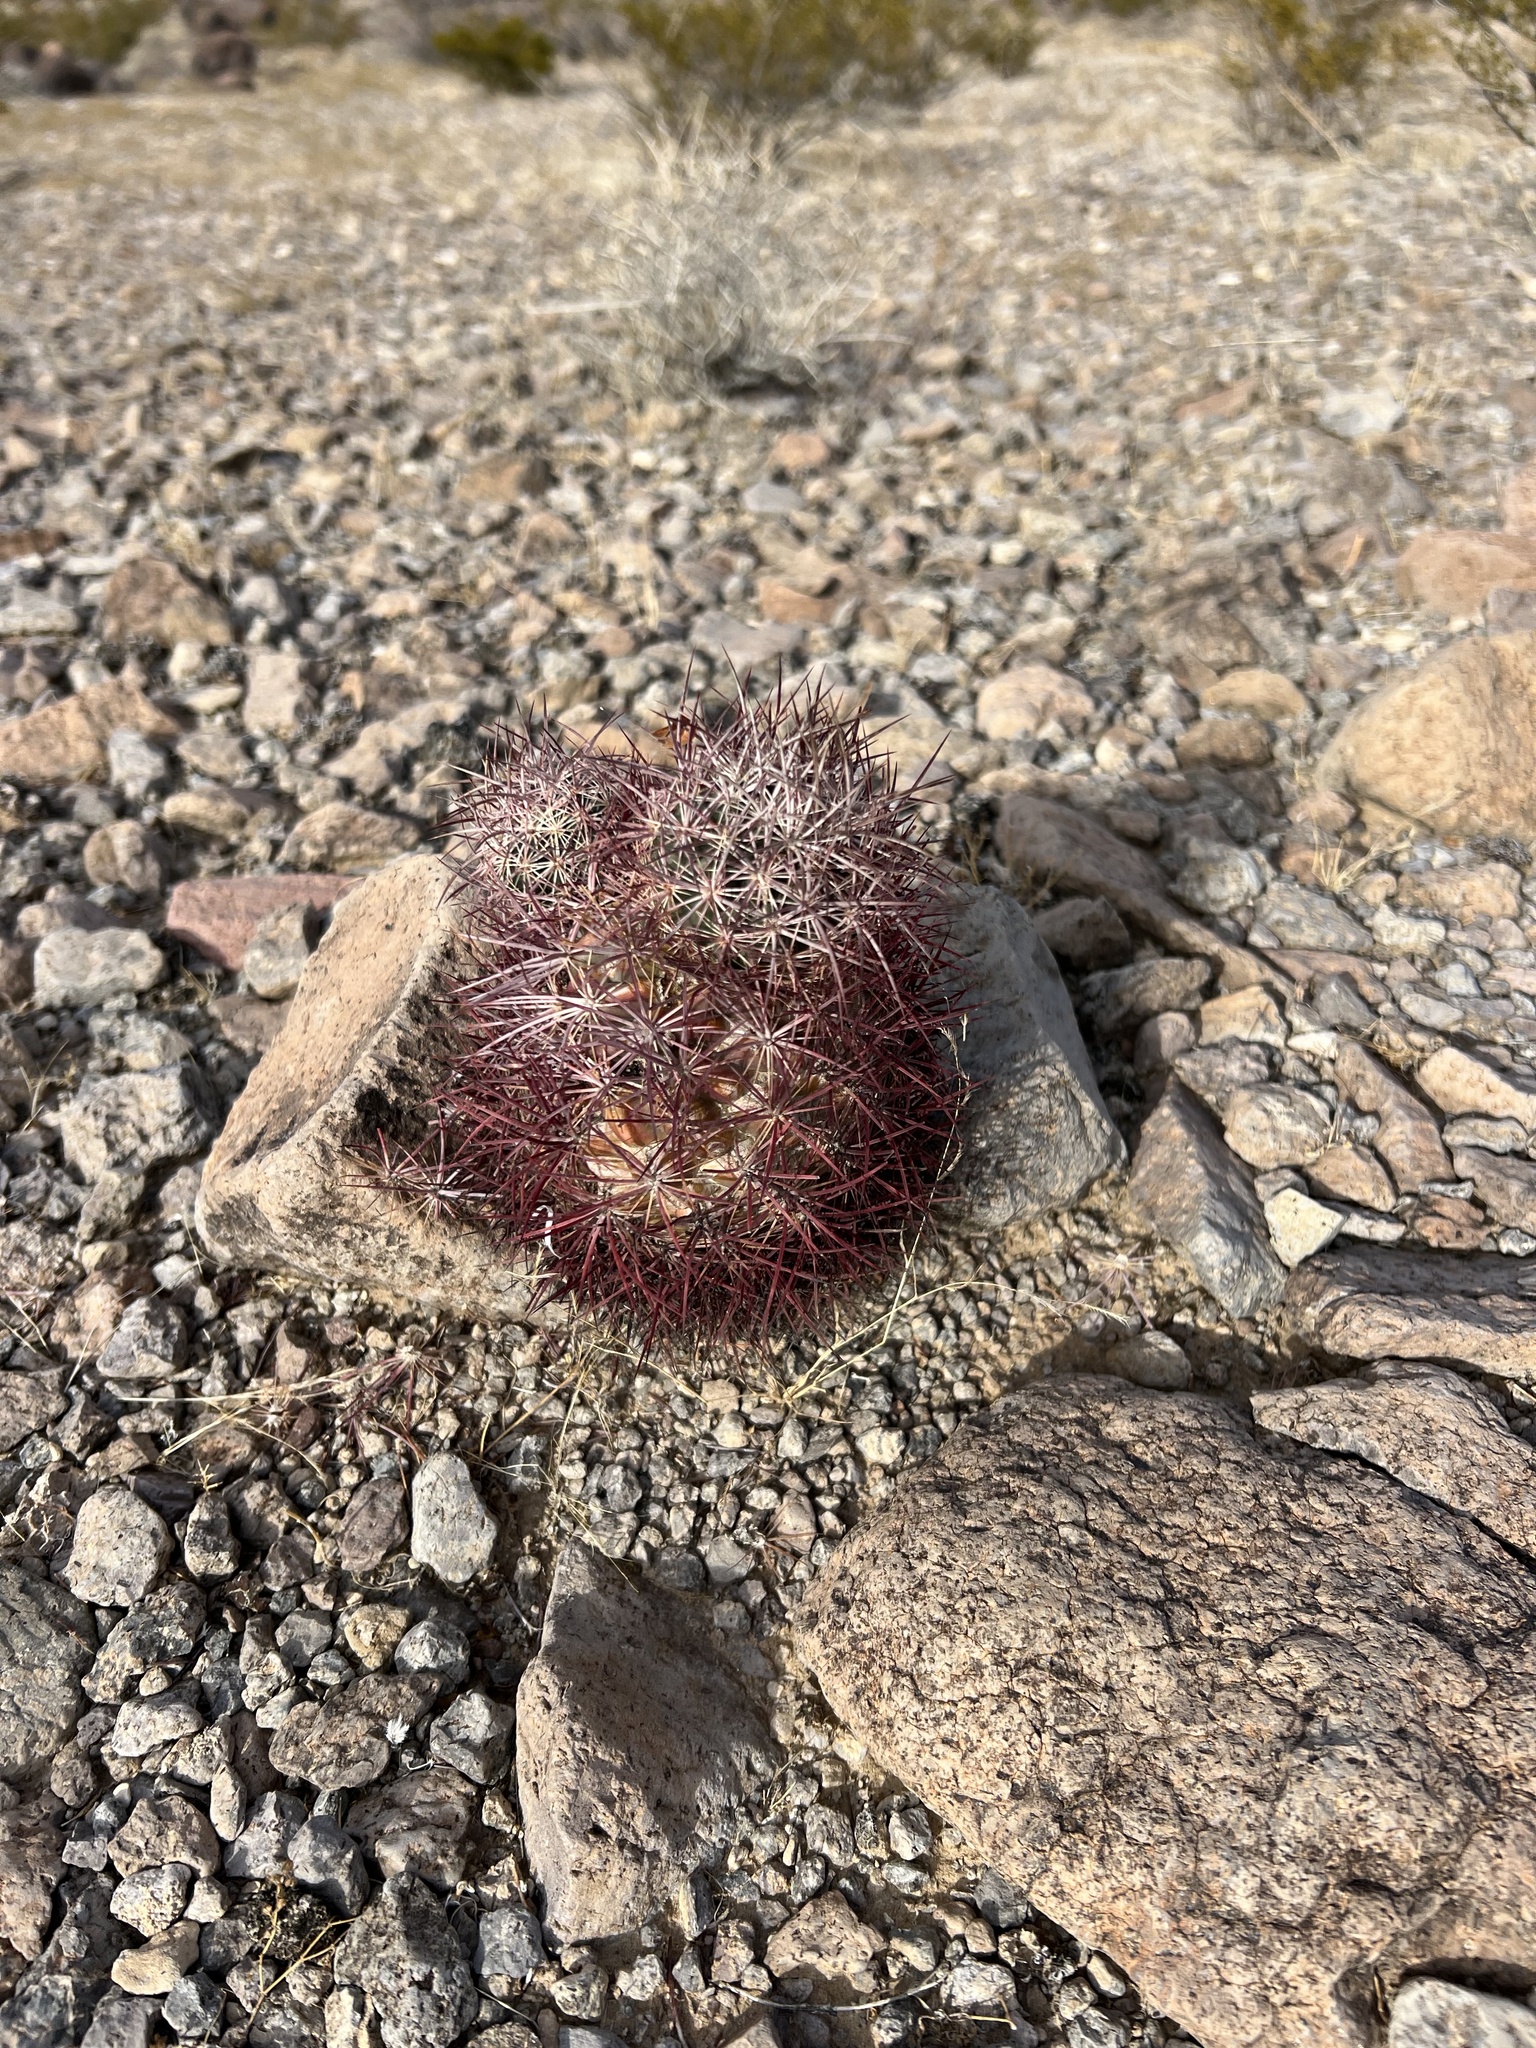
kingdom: Plantae
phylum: Tracheophyta
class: Magnoliopsida
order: Caryophyllales
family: Cactaceae
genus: Sclerocactus
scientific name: Sclerocactus johnsonii
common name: Eight-spine fishhook cactus
